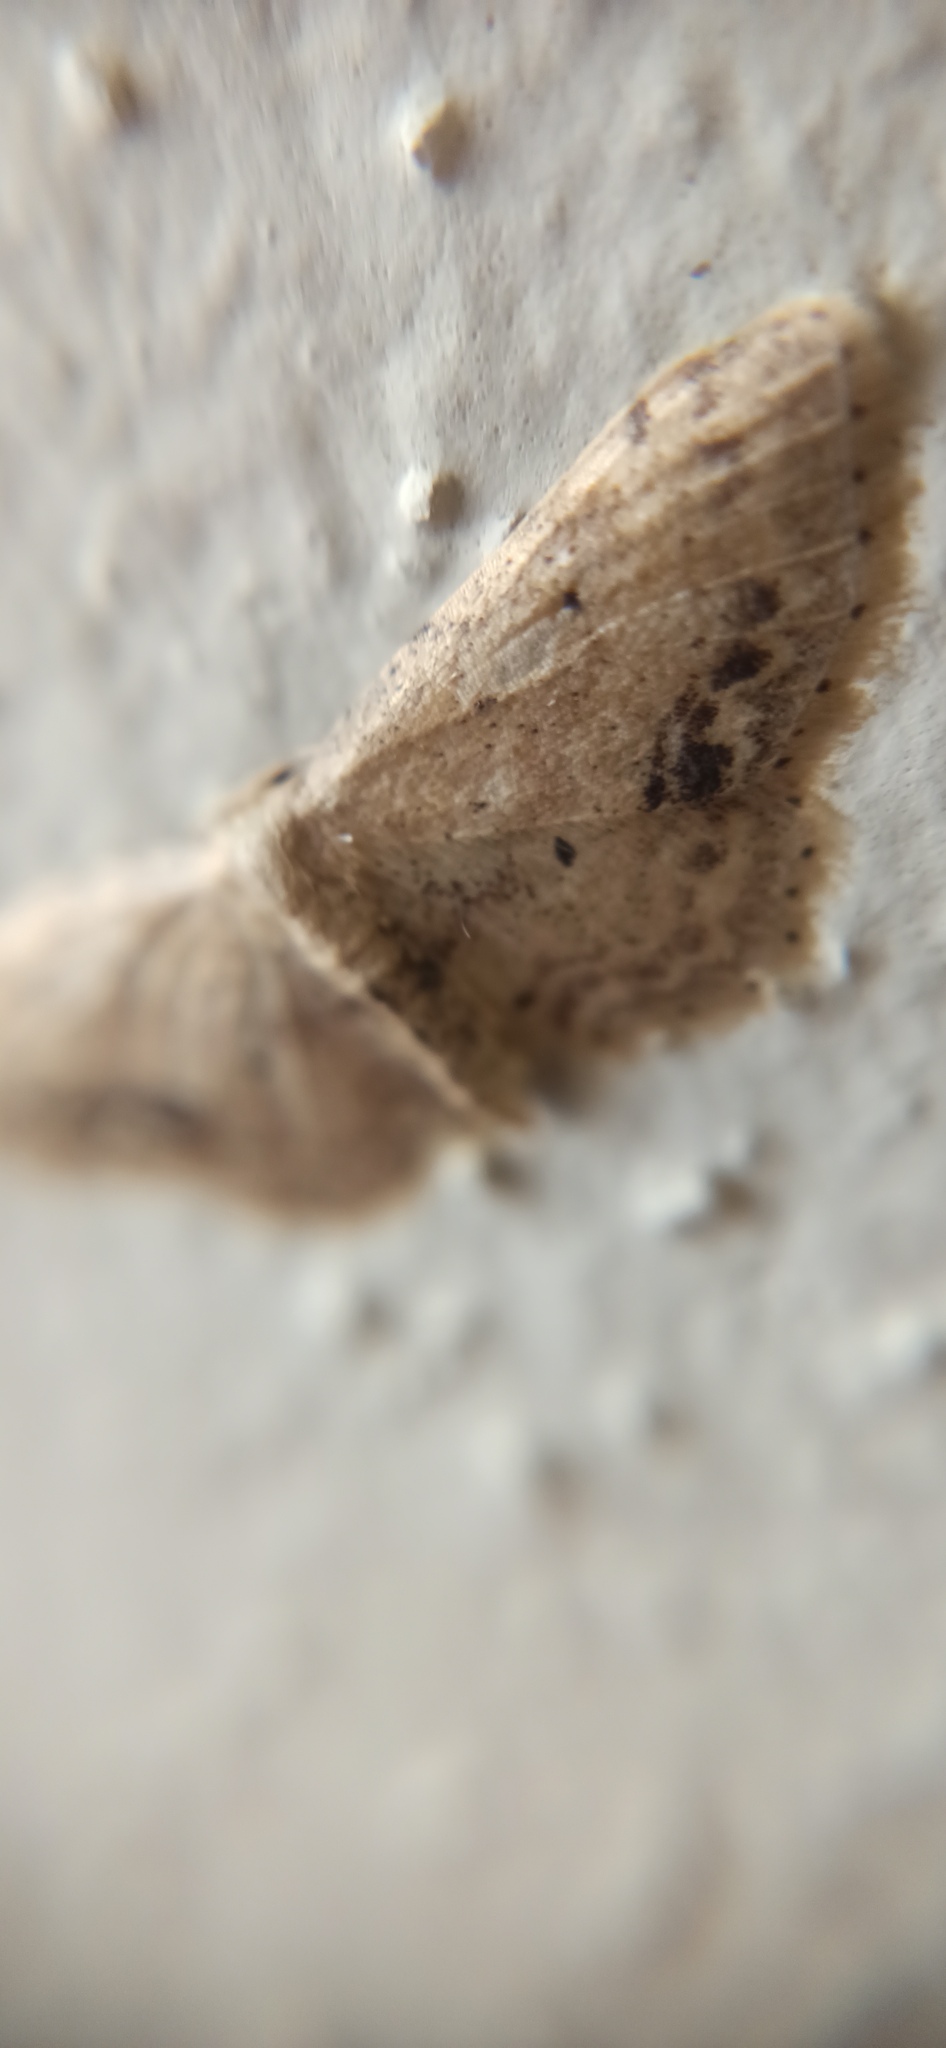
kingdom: Animalia
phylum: Arthropoda
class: Insecta
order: Lepidoptera
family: Geometridae
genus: Idaea
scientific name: Idaea dimidiata
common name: Single-dotted wave
